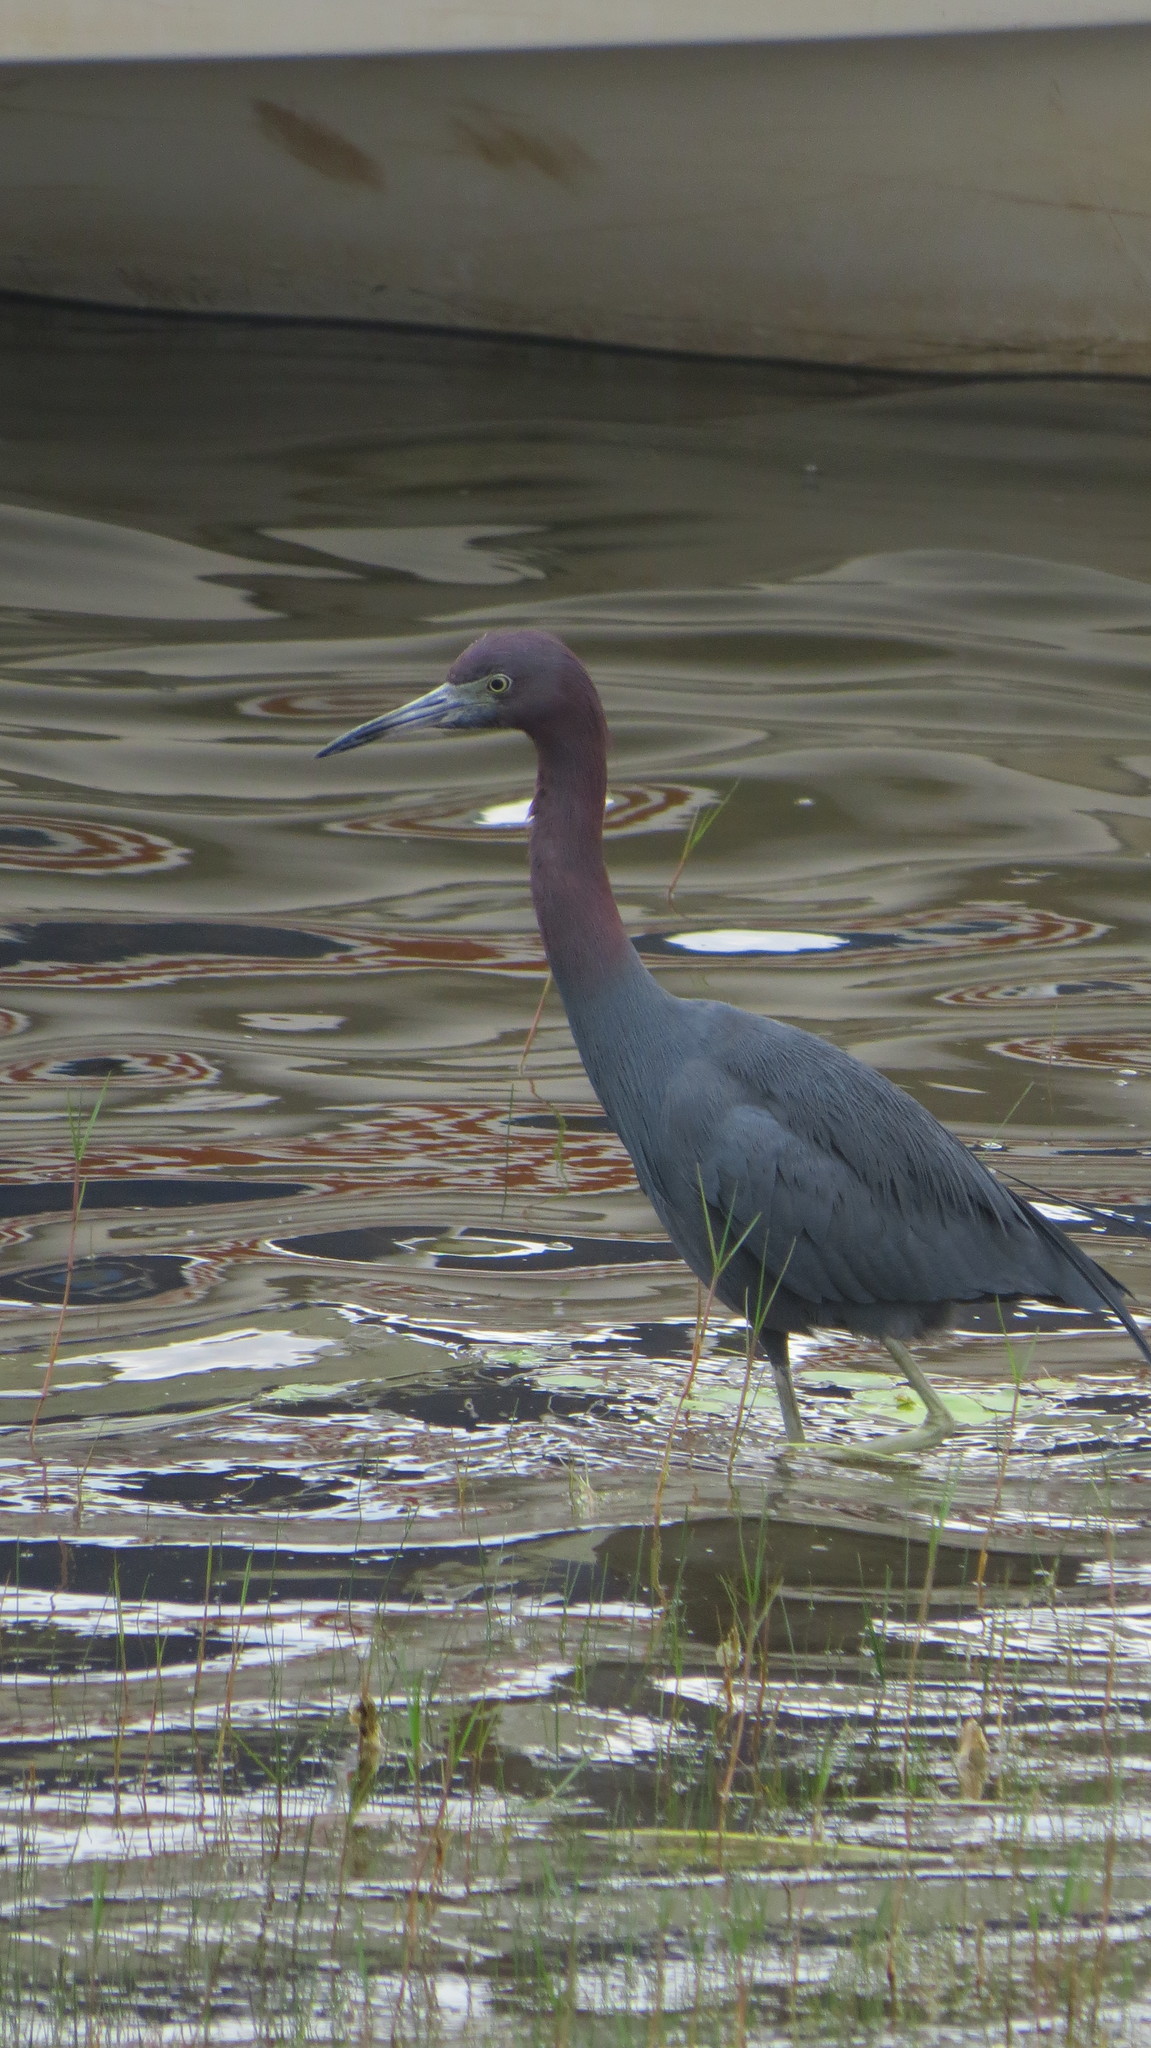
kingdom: Animalia
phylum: Chordata
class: Aves
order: Pelecaniformes
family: Ardeidae
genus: Egretta
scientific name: Egretta caerulea
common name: Little blue heron
